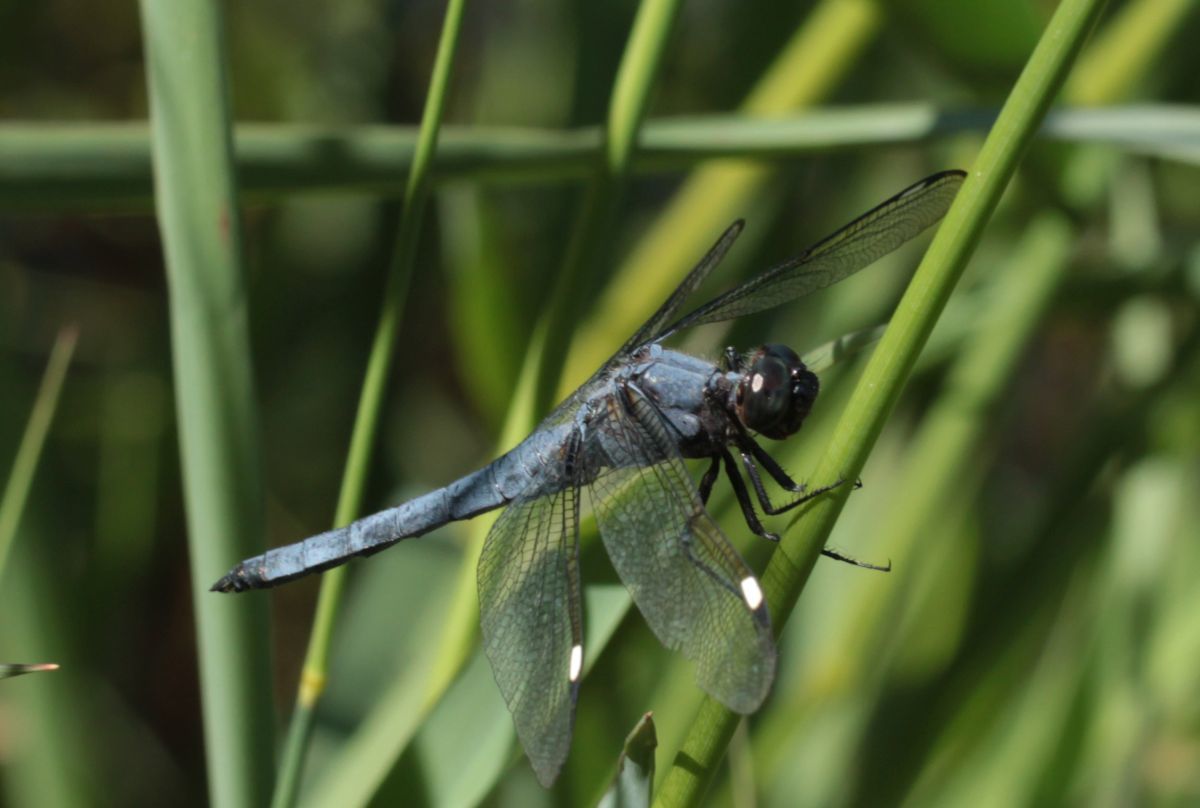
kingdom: Animalia
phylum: Arthropoda
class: Insecta
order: Odonata
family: Libellulidae
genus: Libellula
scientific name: Libellula cyanea
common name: Spangled skimmer
